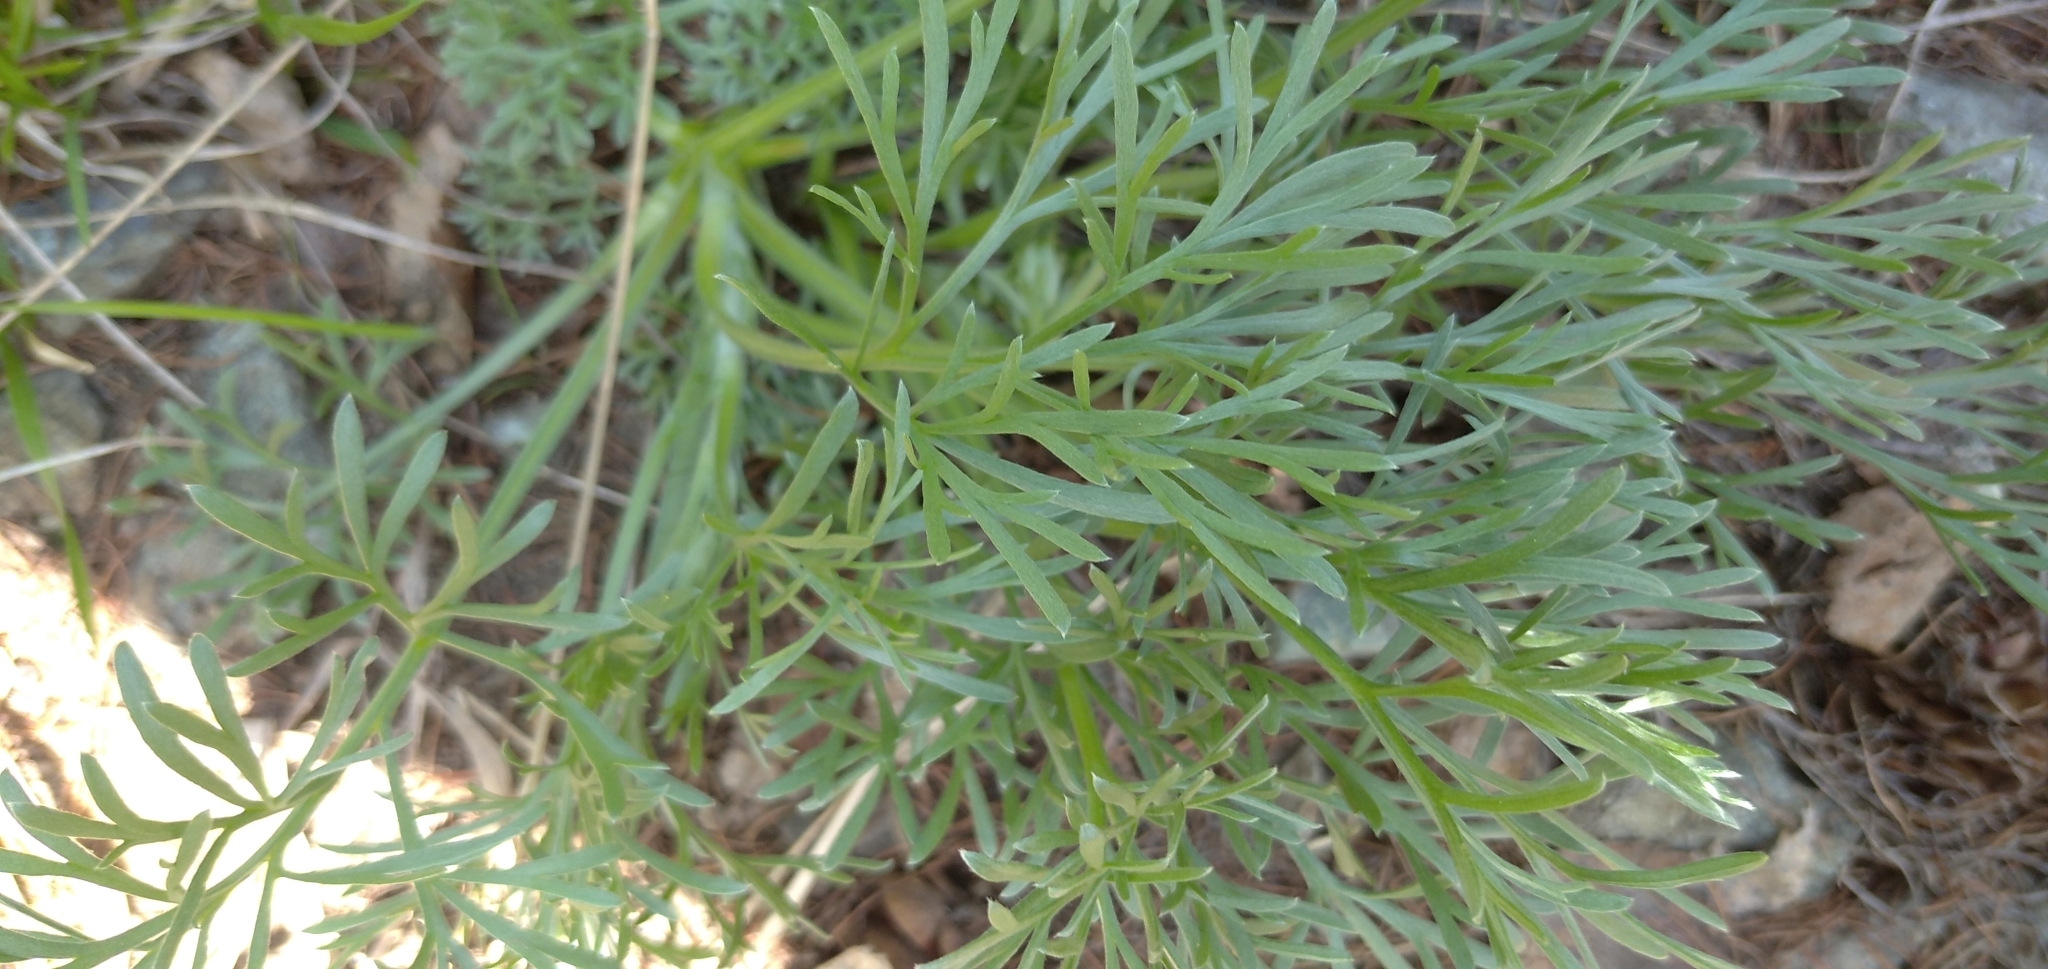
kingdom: Plantae
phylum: Tracheophyta
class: Magnoliopsida
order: Asterales
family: Asteraceae
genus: Artemisia
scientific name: Artemisia campestris
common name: Field wormwood
